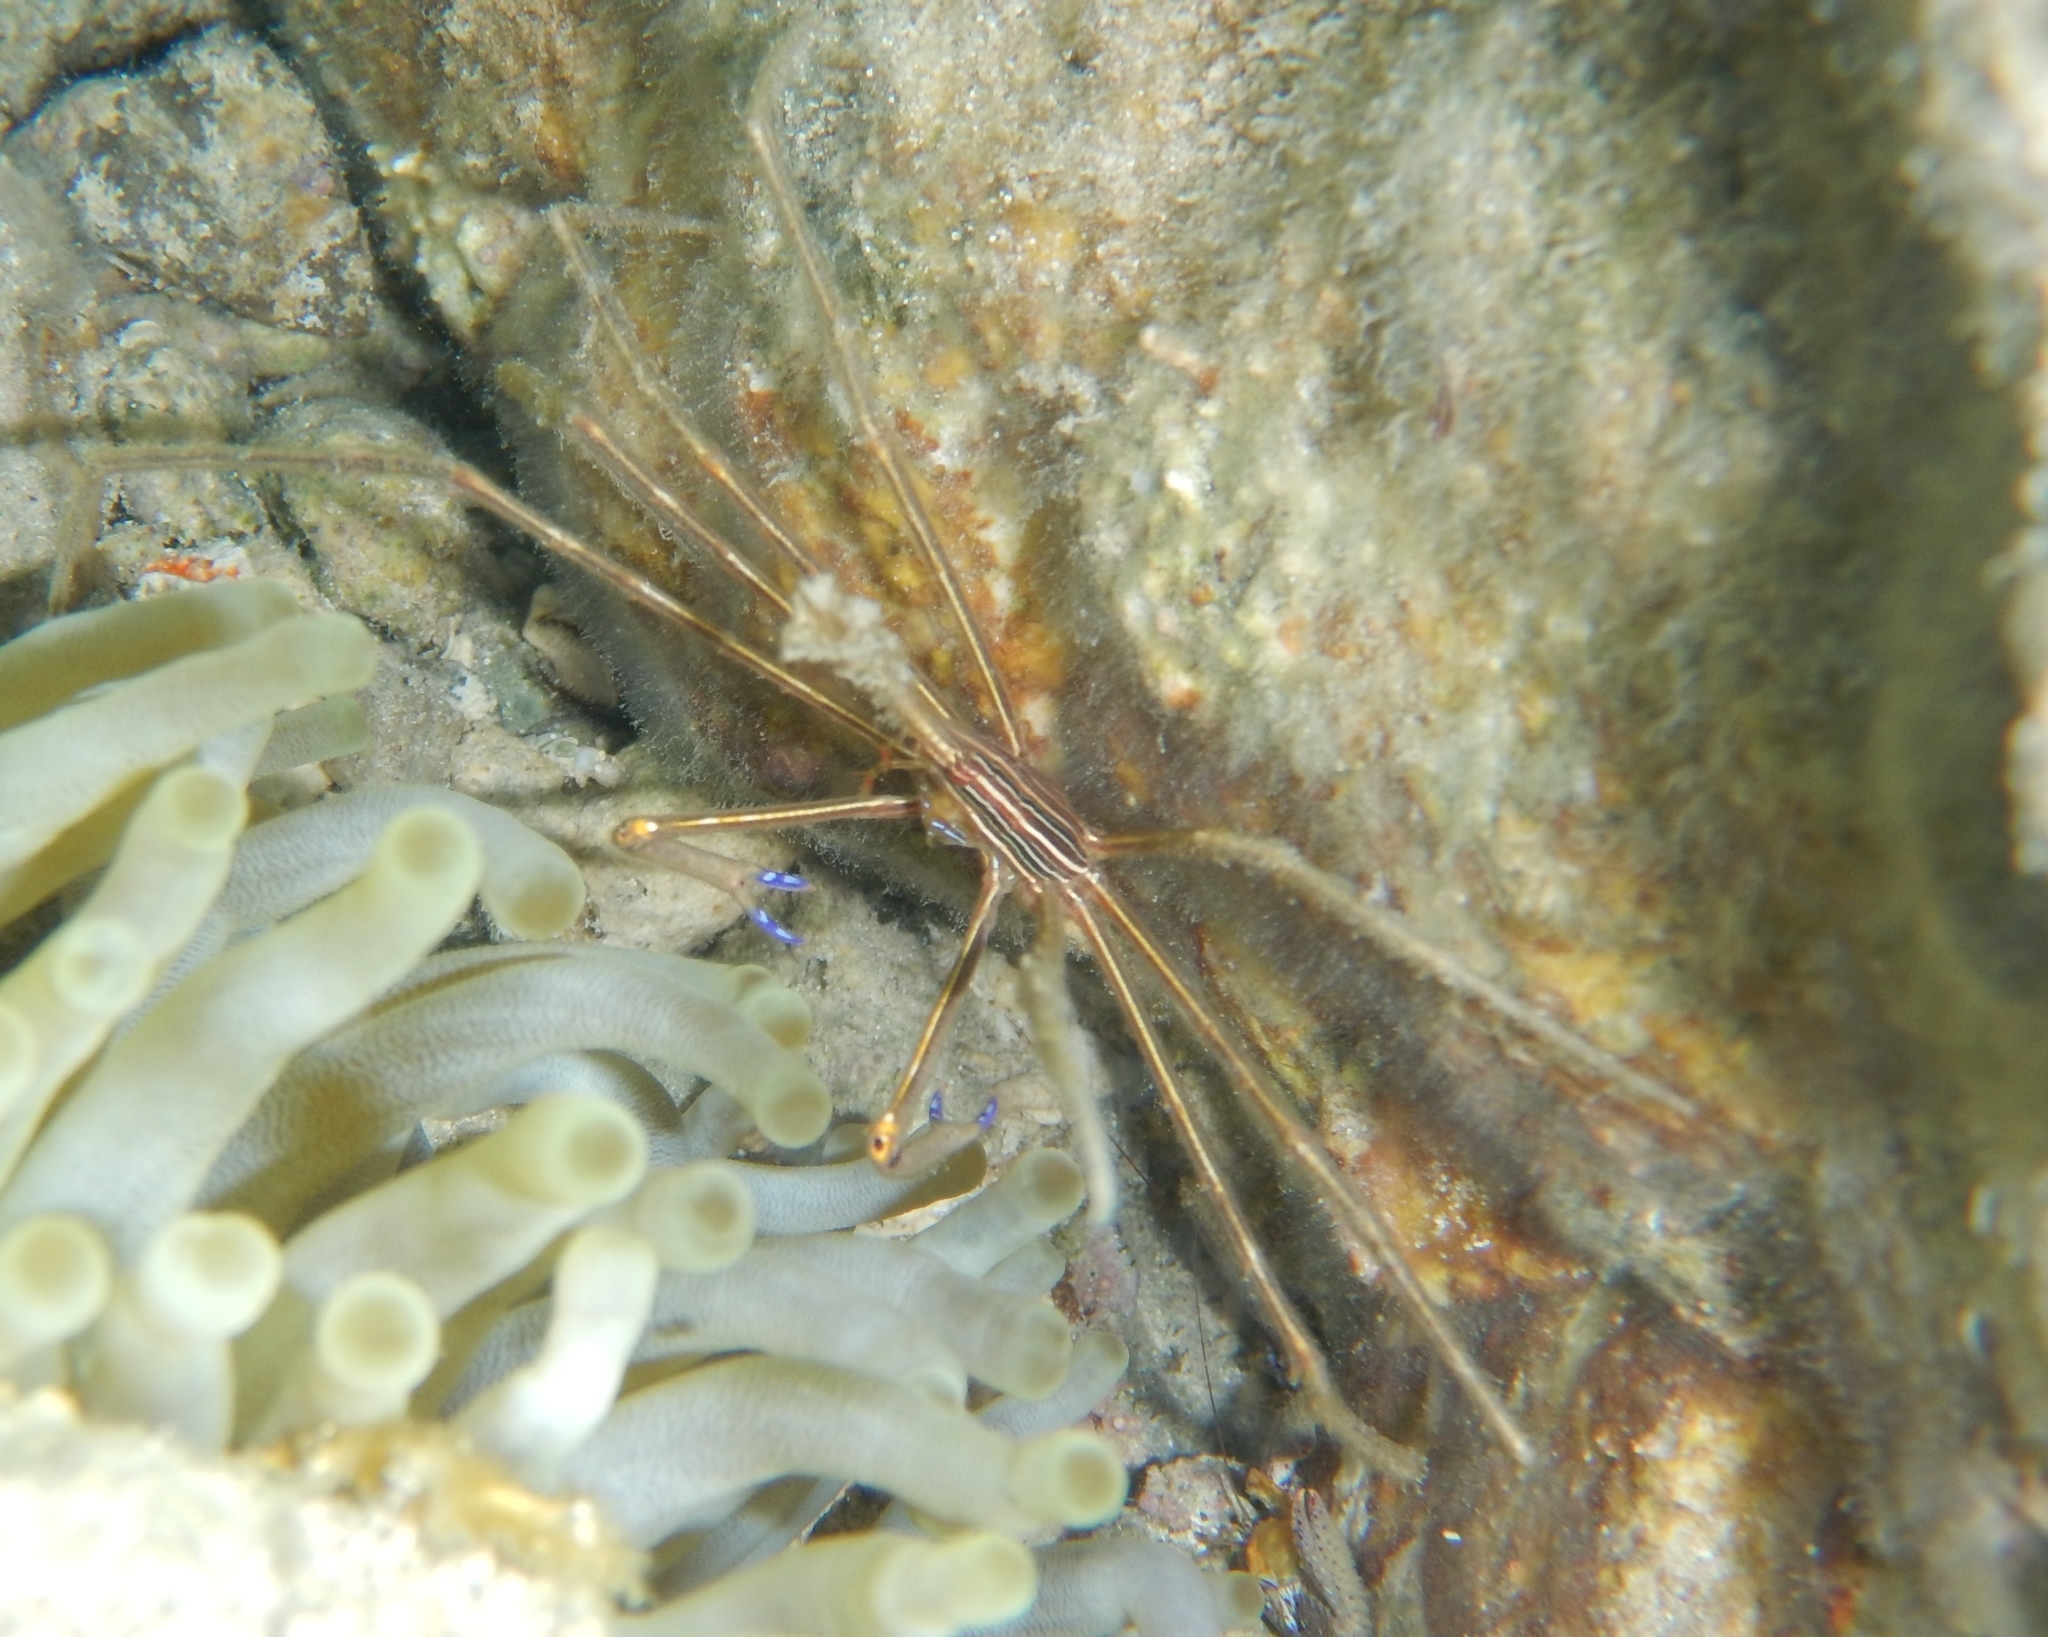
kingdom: Animalia
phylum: Arthropoda
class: Malacostraca
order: Decapoda
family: Inachoididae
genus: Stenorhynchus
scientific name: Stenorhynchus seticornis
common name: Arrow crab
